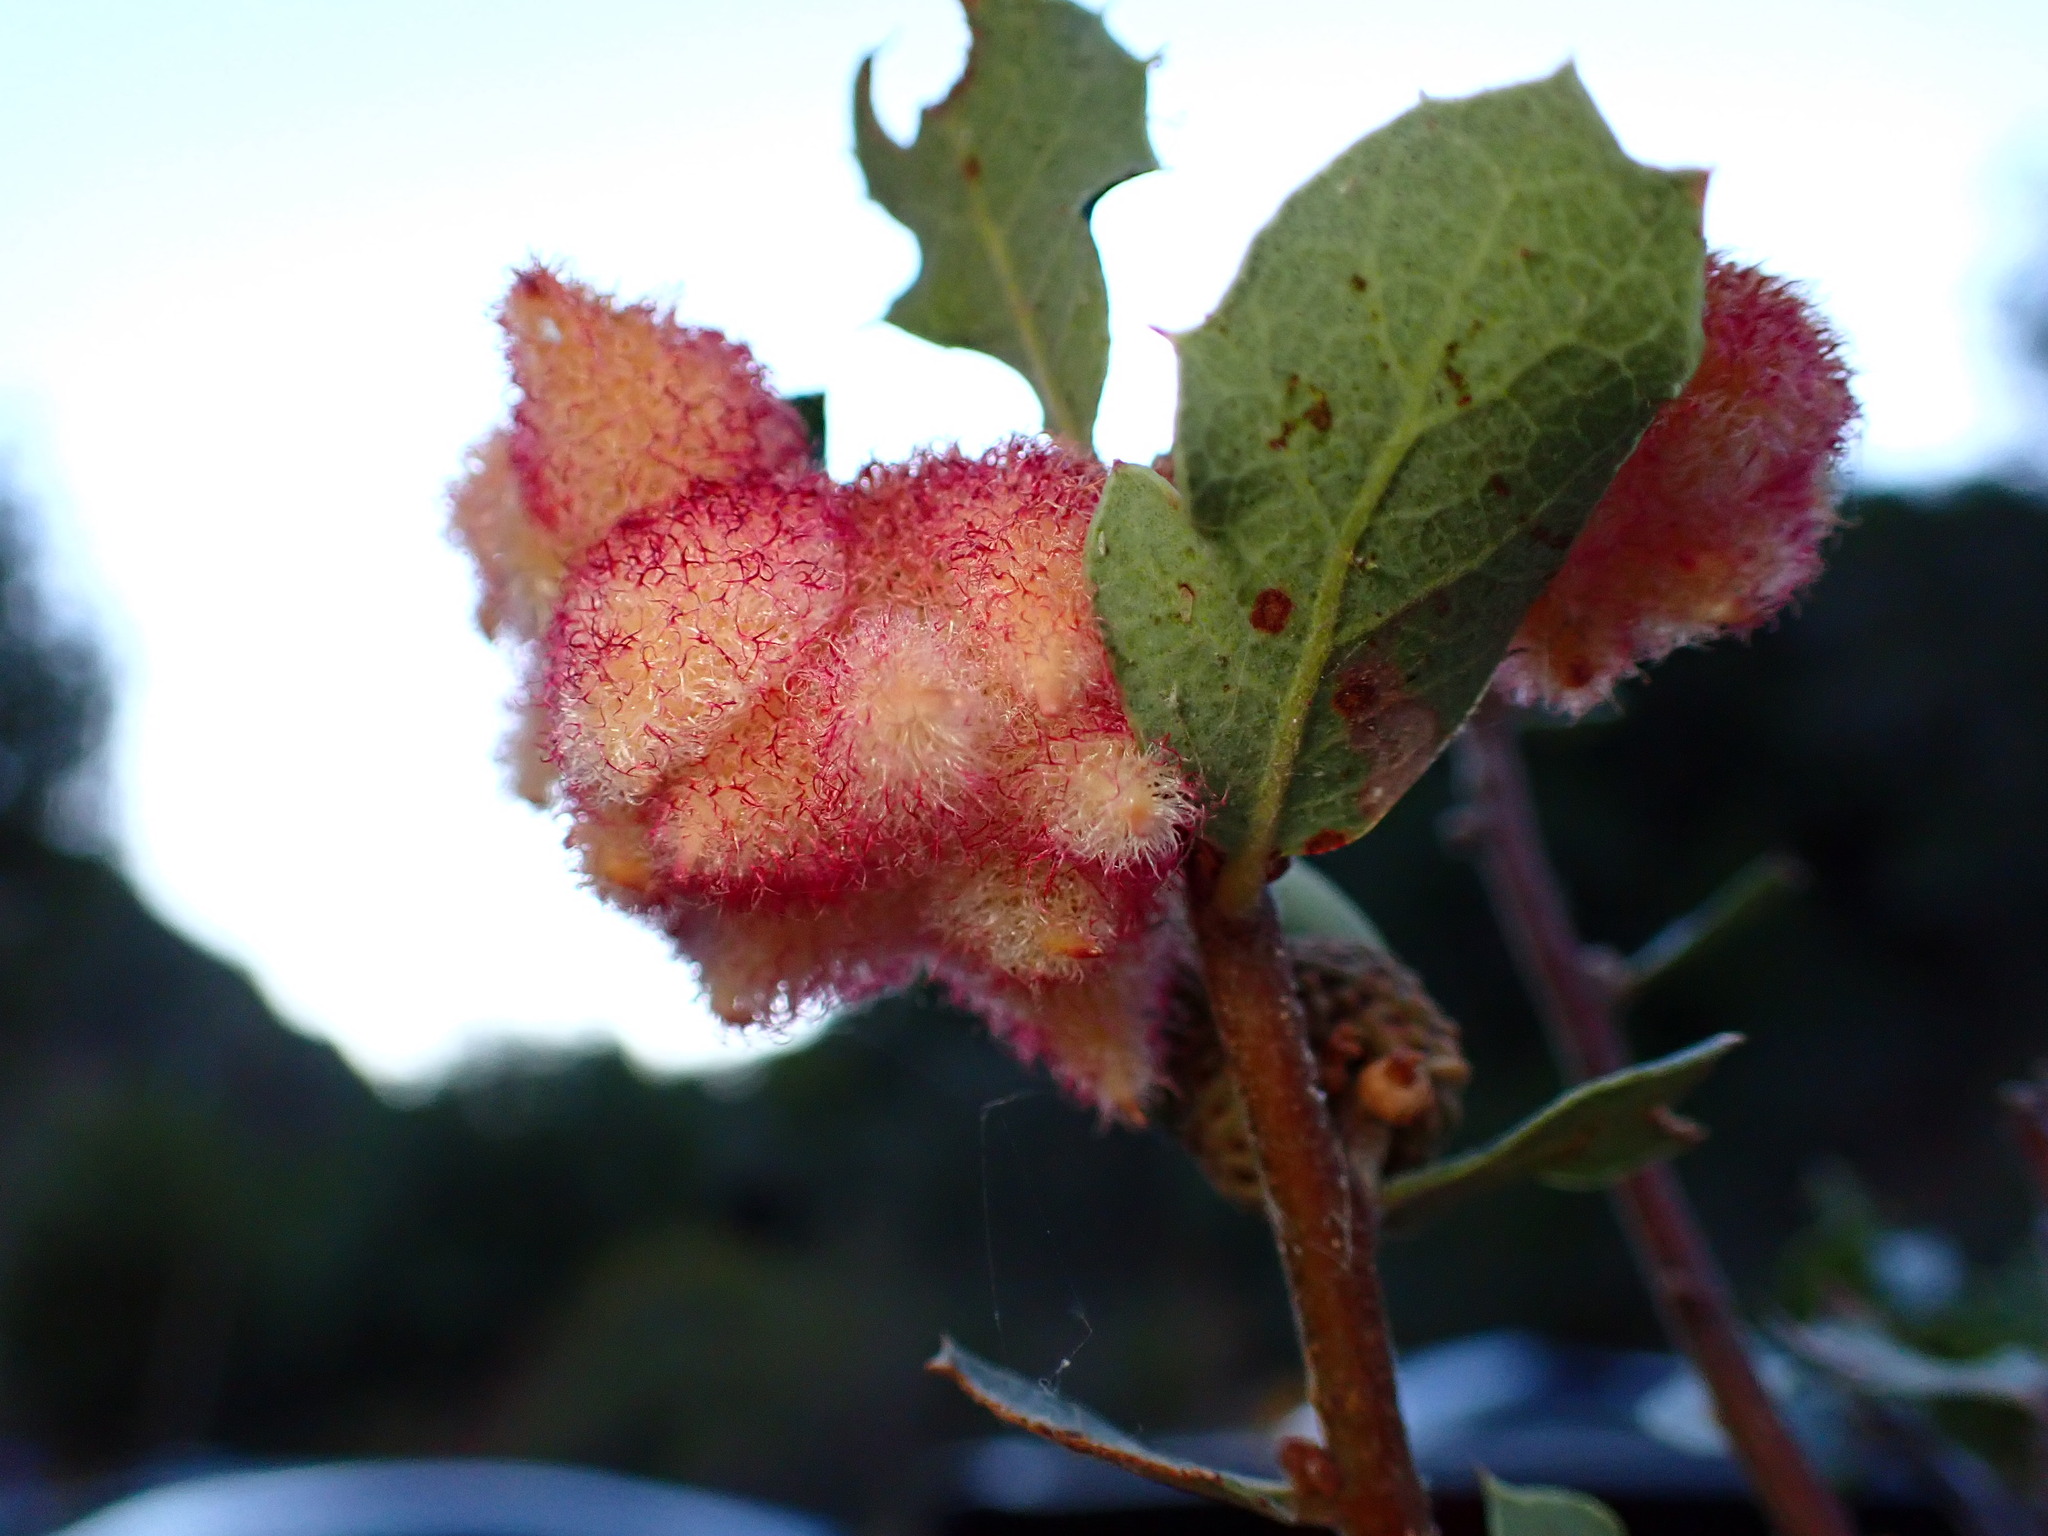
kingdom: Animalia
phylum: Arthropoda
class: Insecta
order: Hymenoptera
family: Cynipidae
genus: Andricus
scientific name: Andricus
